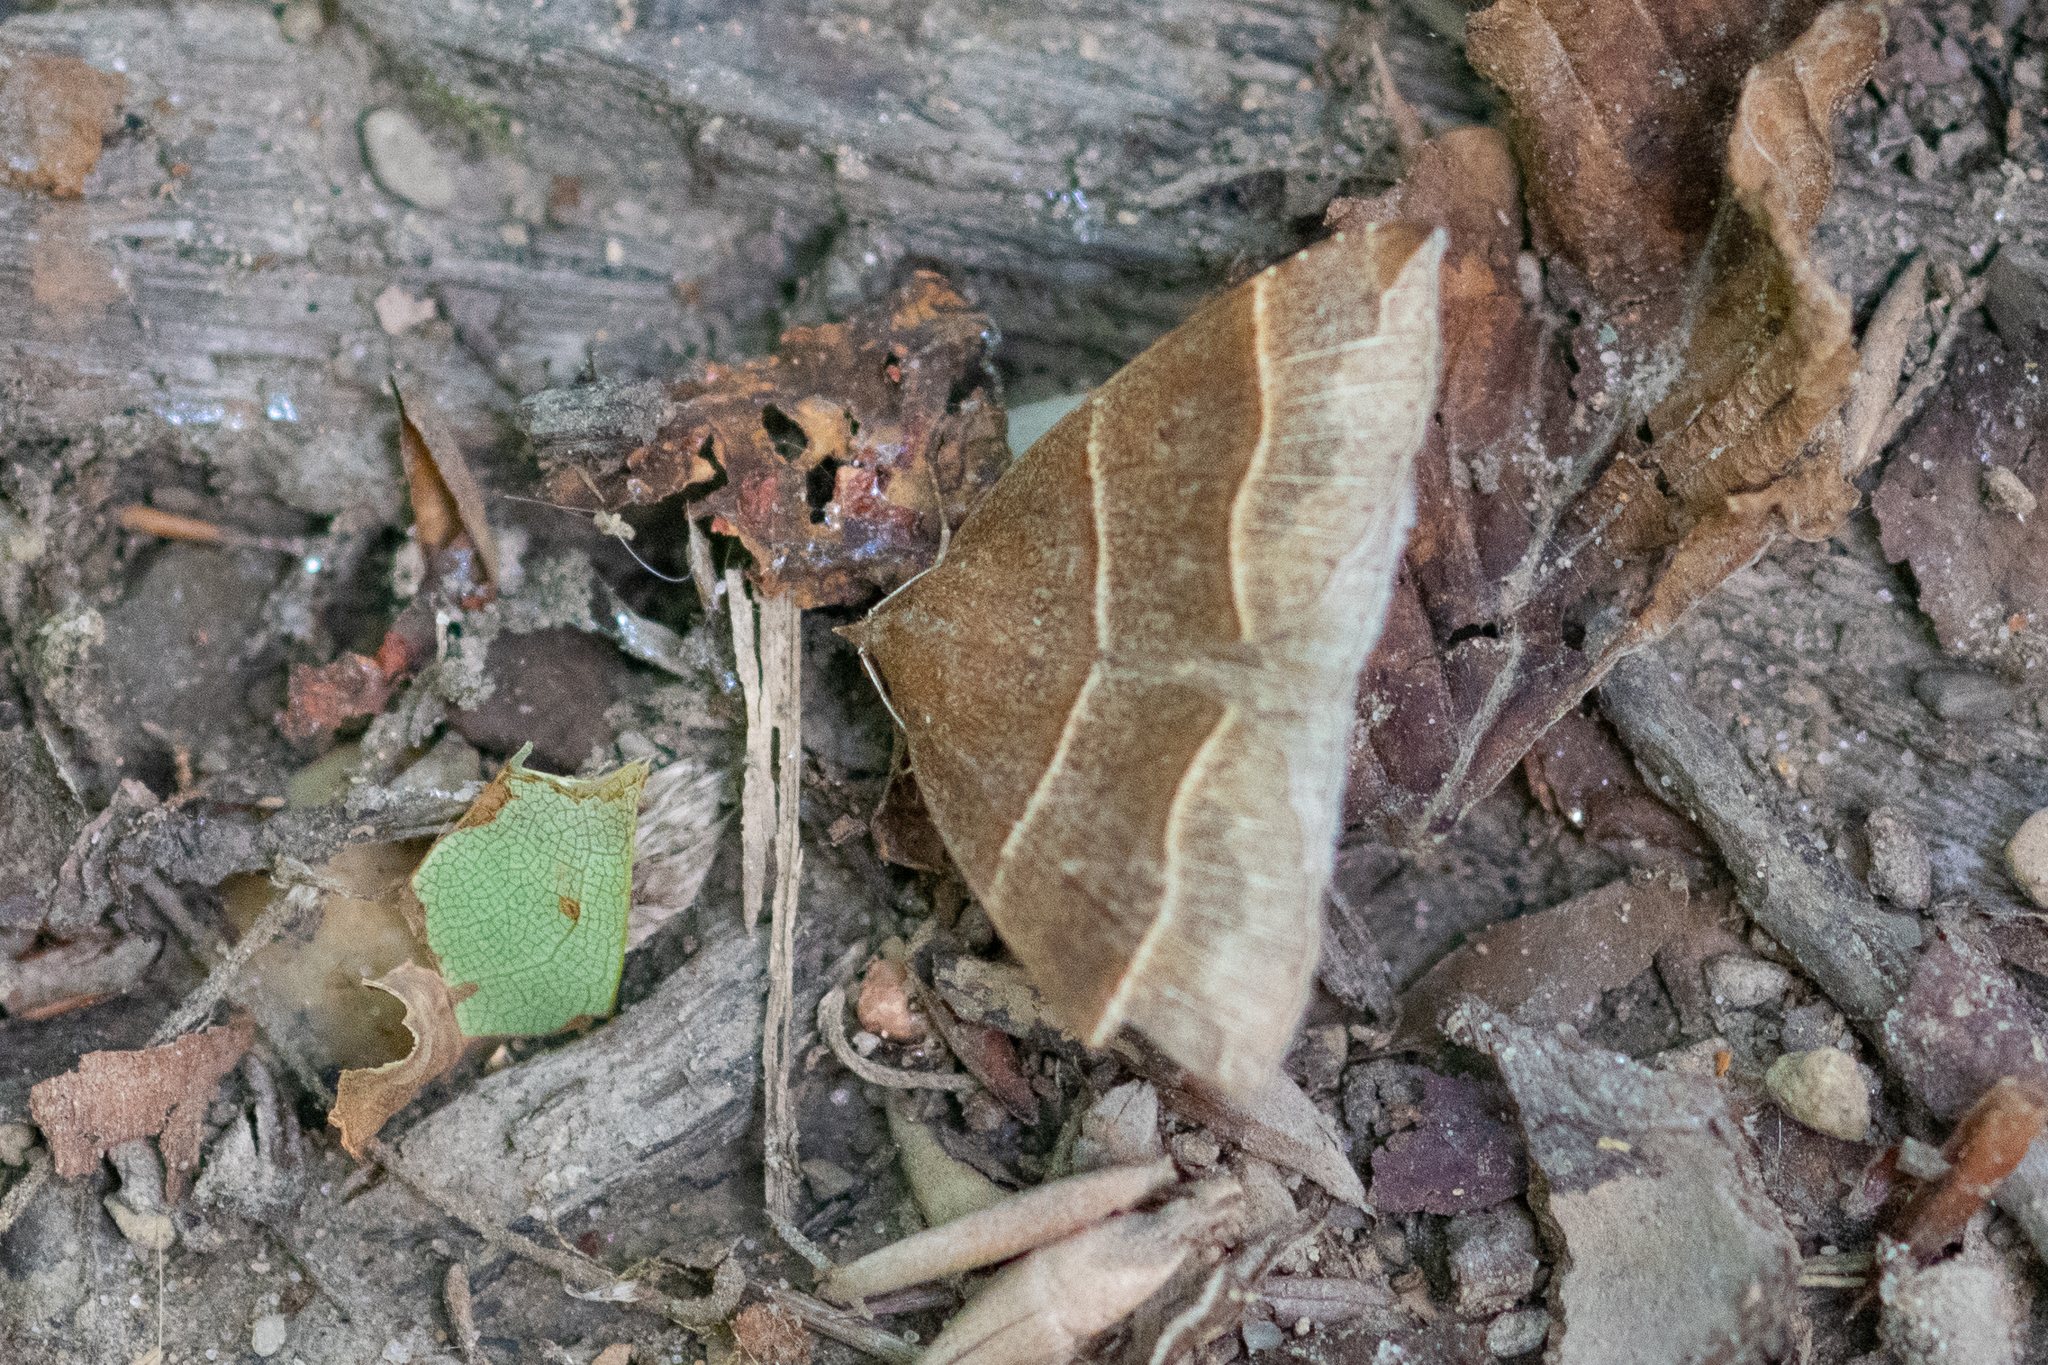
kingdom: Animalia
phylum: Arthropoda
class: Insecta
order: Lepidoptera
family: Erebidae
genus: Parallelia
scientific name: Parallelia bistriaris
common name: Maple looper moth
